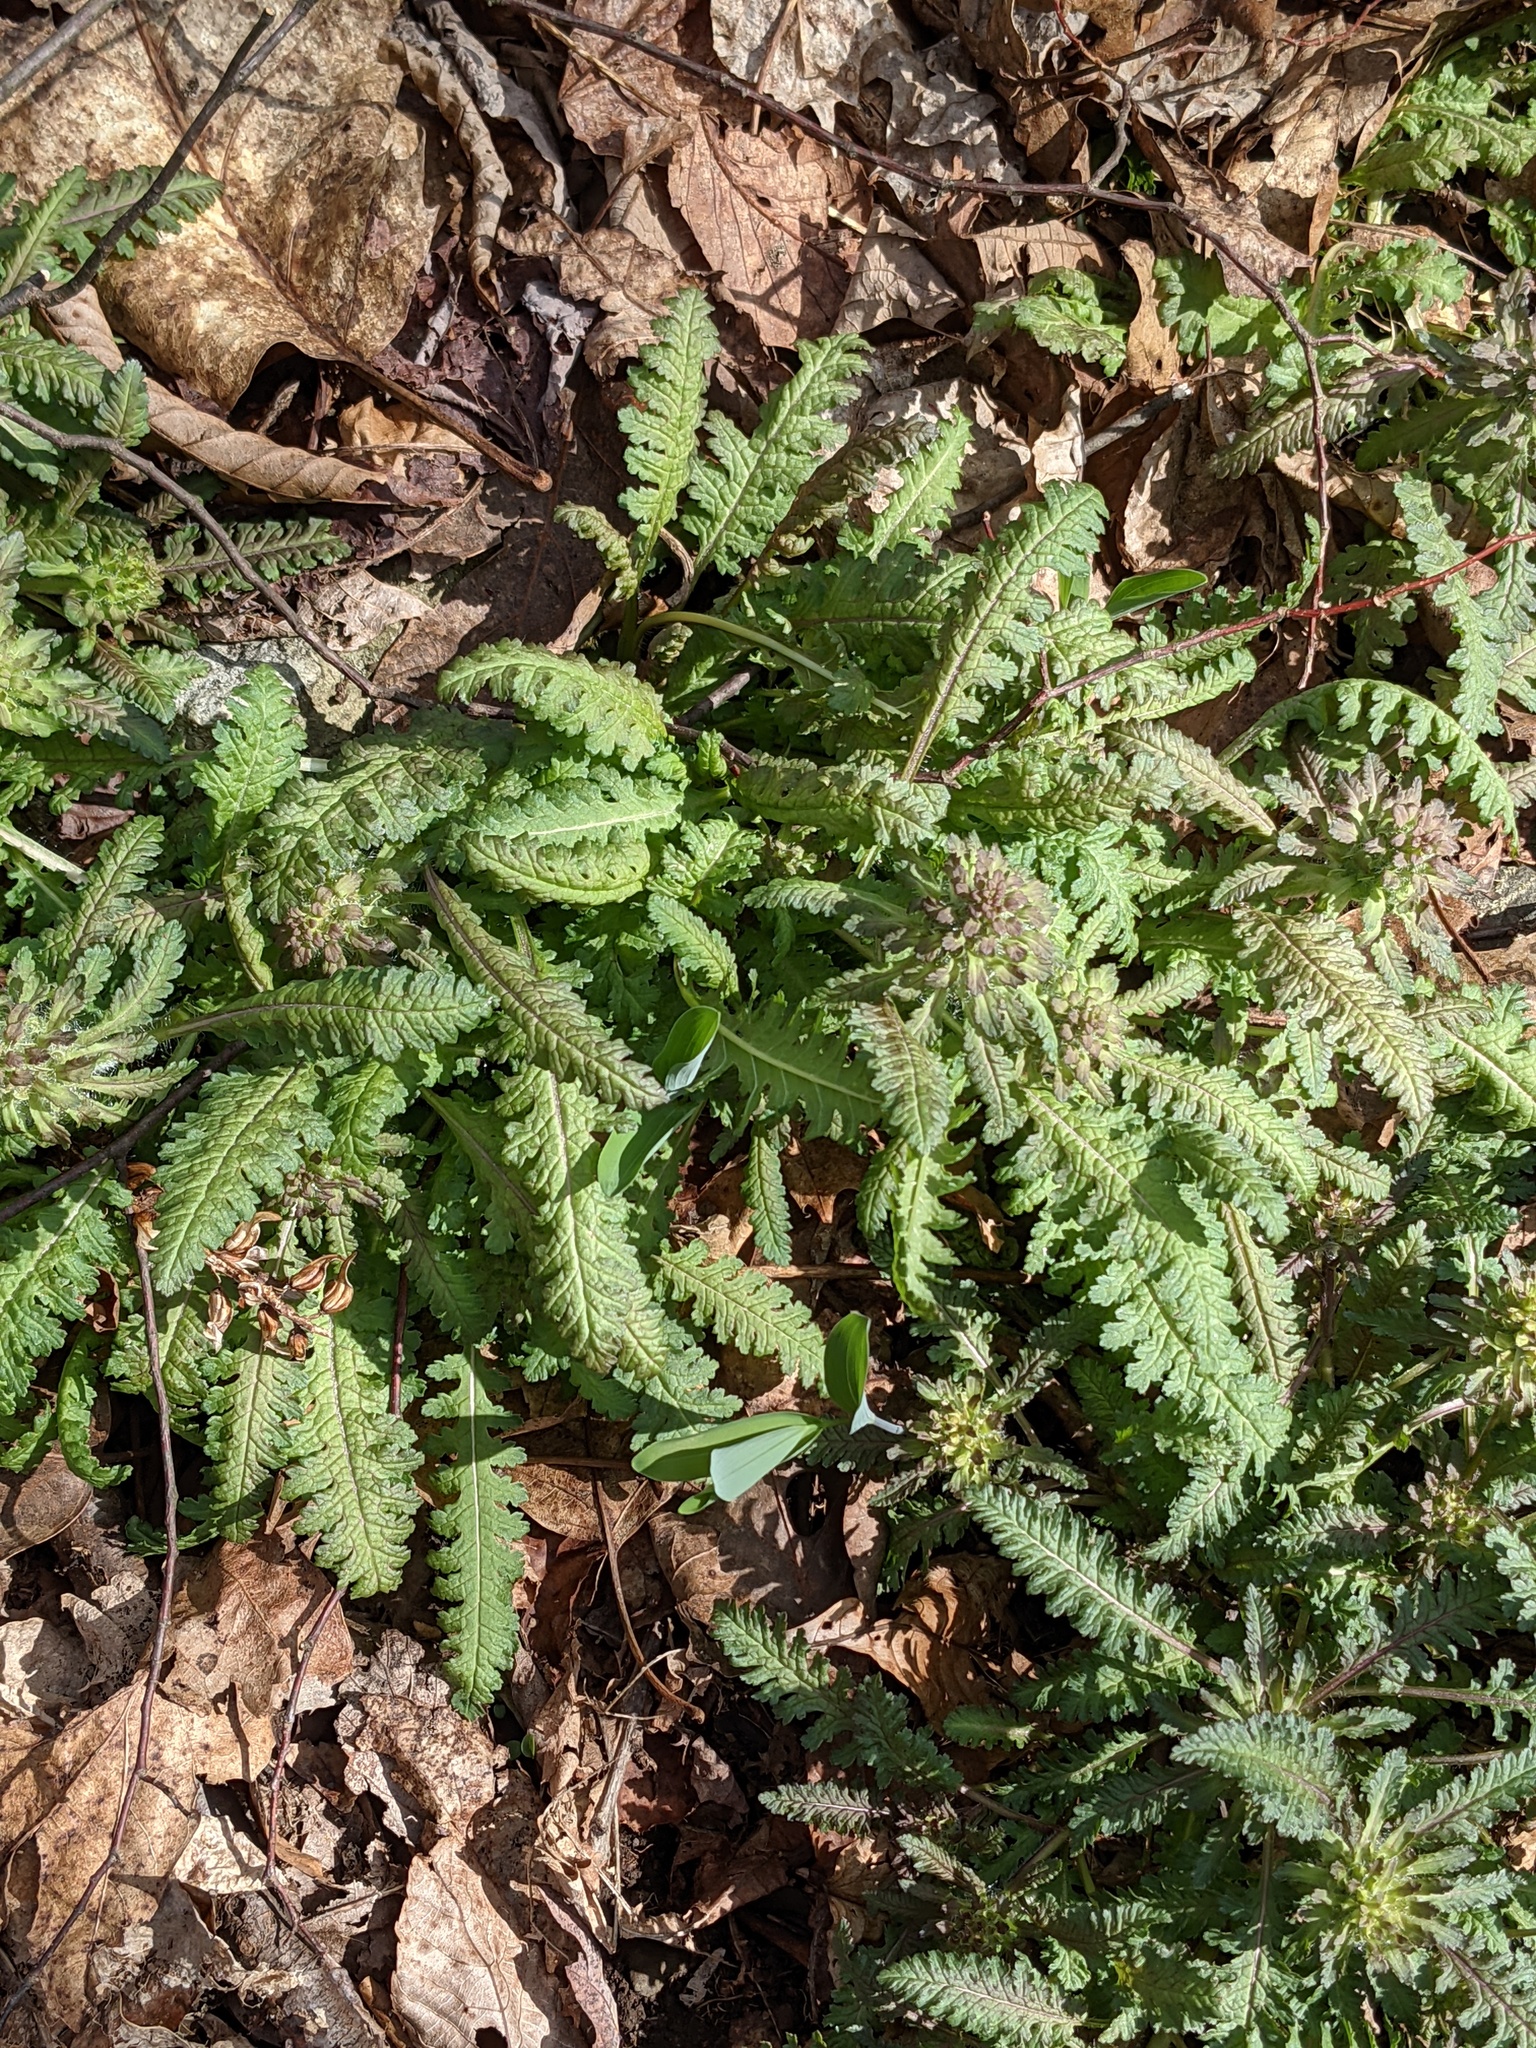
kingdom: Plantae
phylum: Tracheophyta
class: Magnoliopsida
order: Lamiales
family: Orobanchaceae
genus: Pedicularis
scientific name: Pedicularis canadensis
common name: Early lousewort
